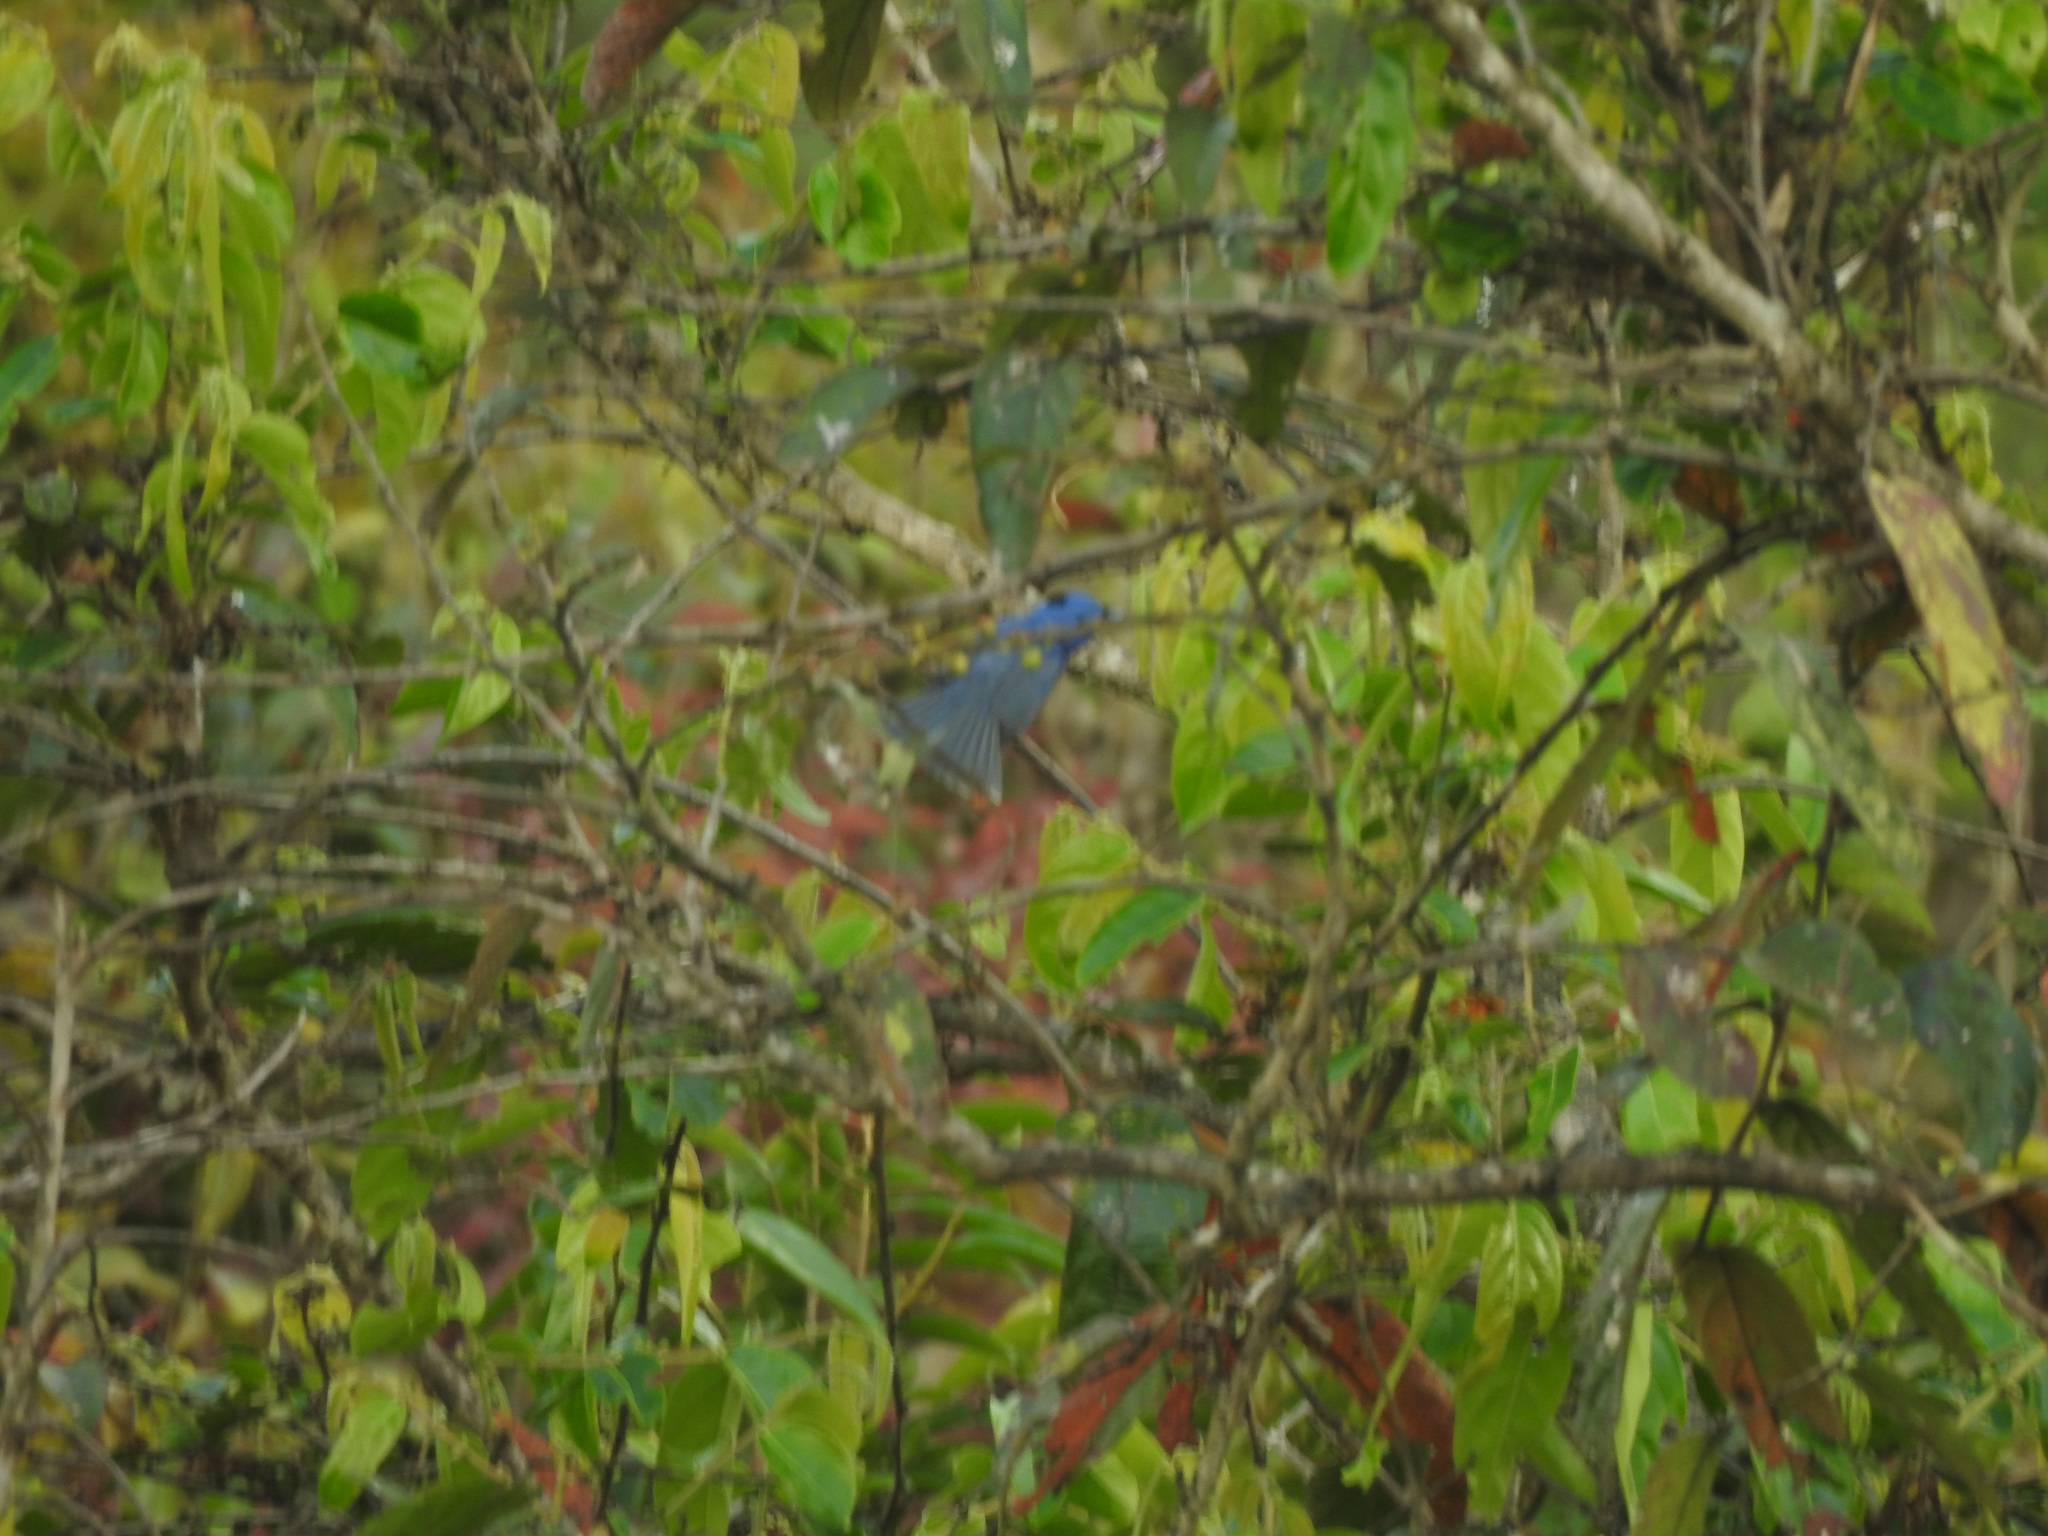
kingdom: Animalia
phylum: Chordata
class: Aves
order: Passeriformes
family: Monarchidae
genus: Hypothymis
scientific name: Hypothymis azurea
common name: Black-naped monarch
